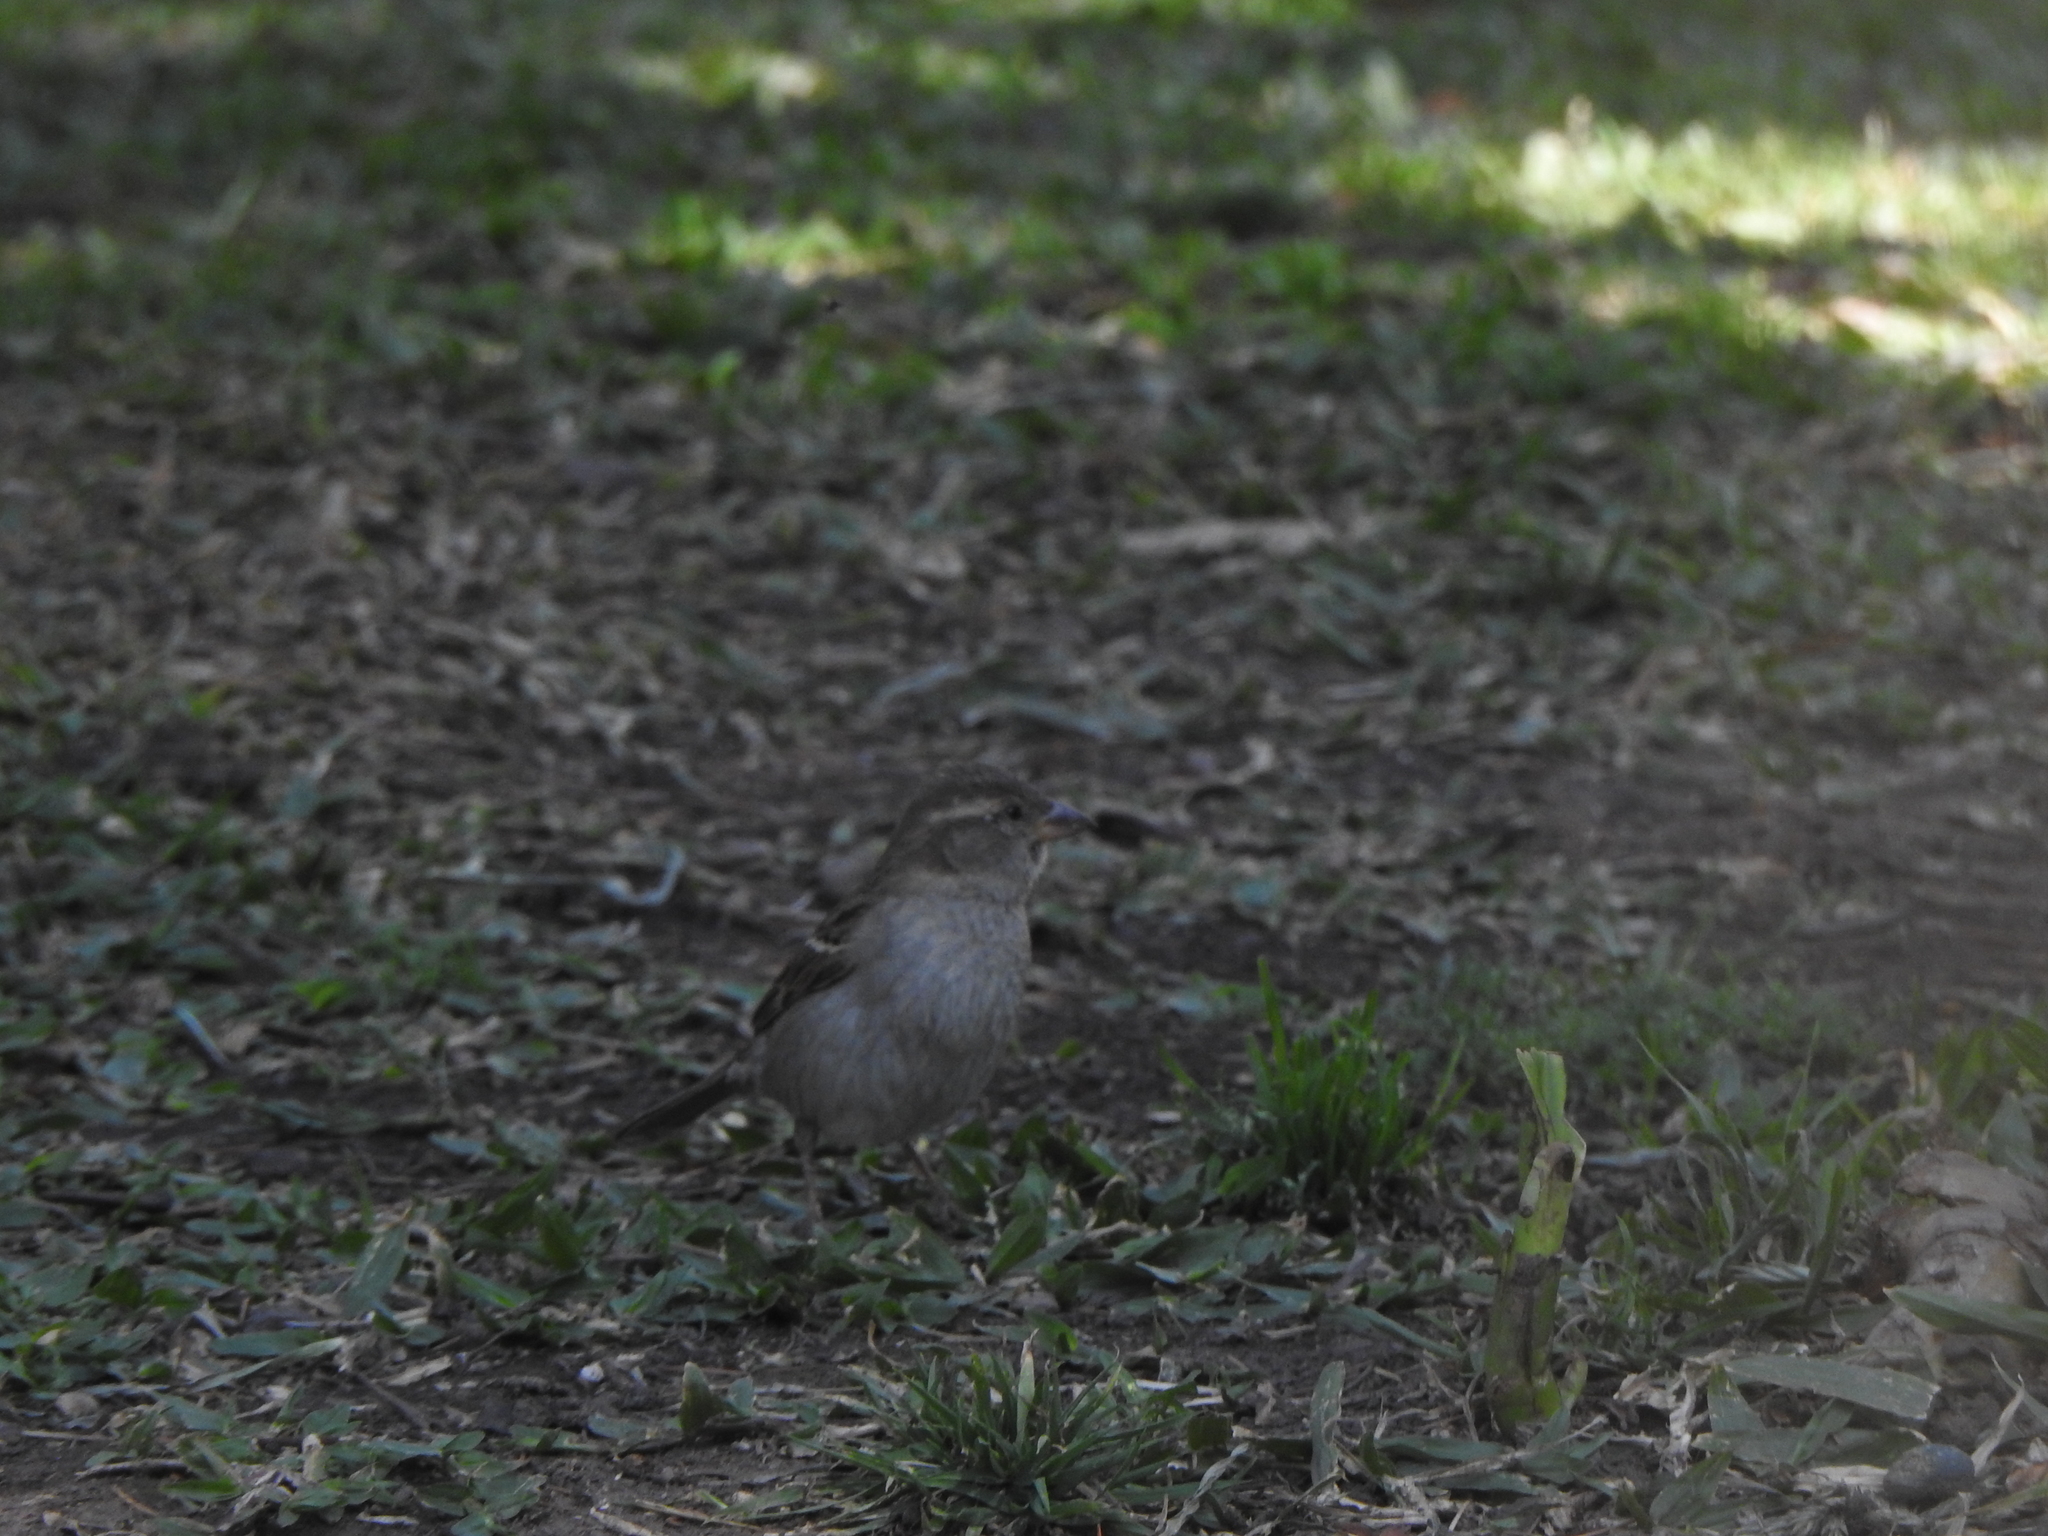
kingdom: Animalia
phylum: Chordata
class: Aves
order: Passeriformes
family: Passeridae
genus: Passer
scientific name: Passer domesticus
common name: House sparrow
